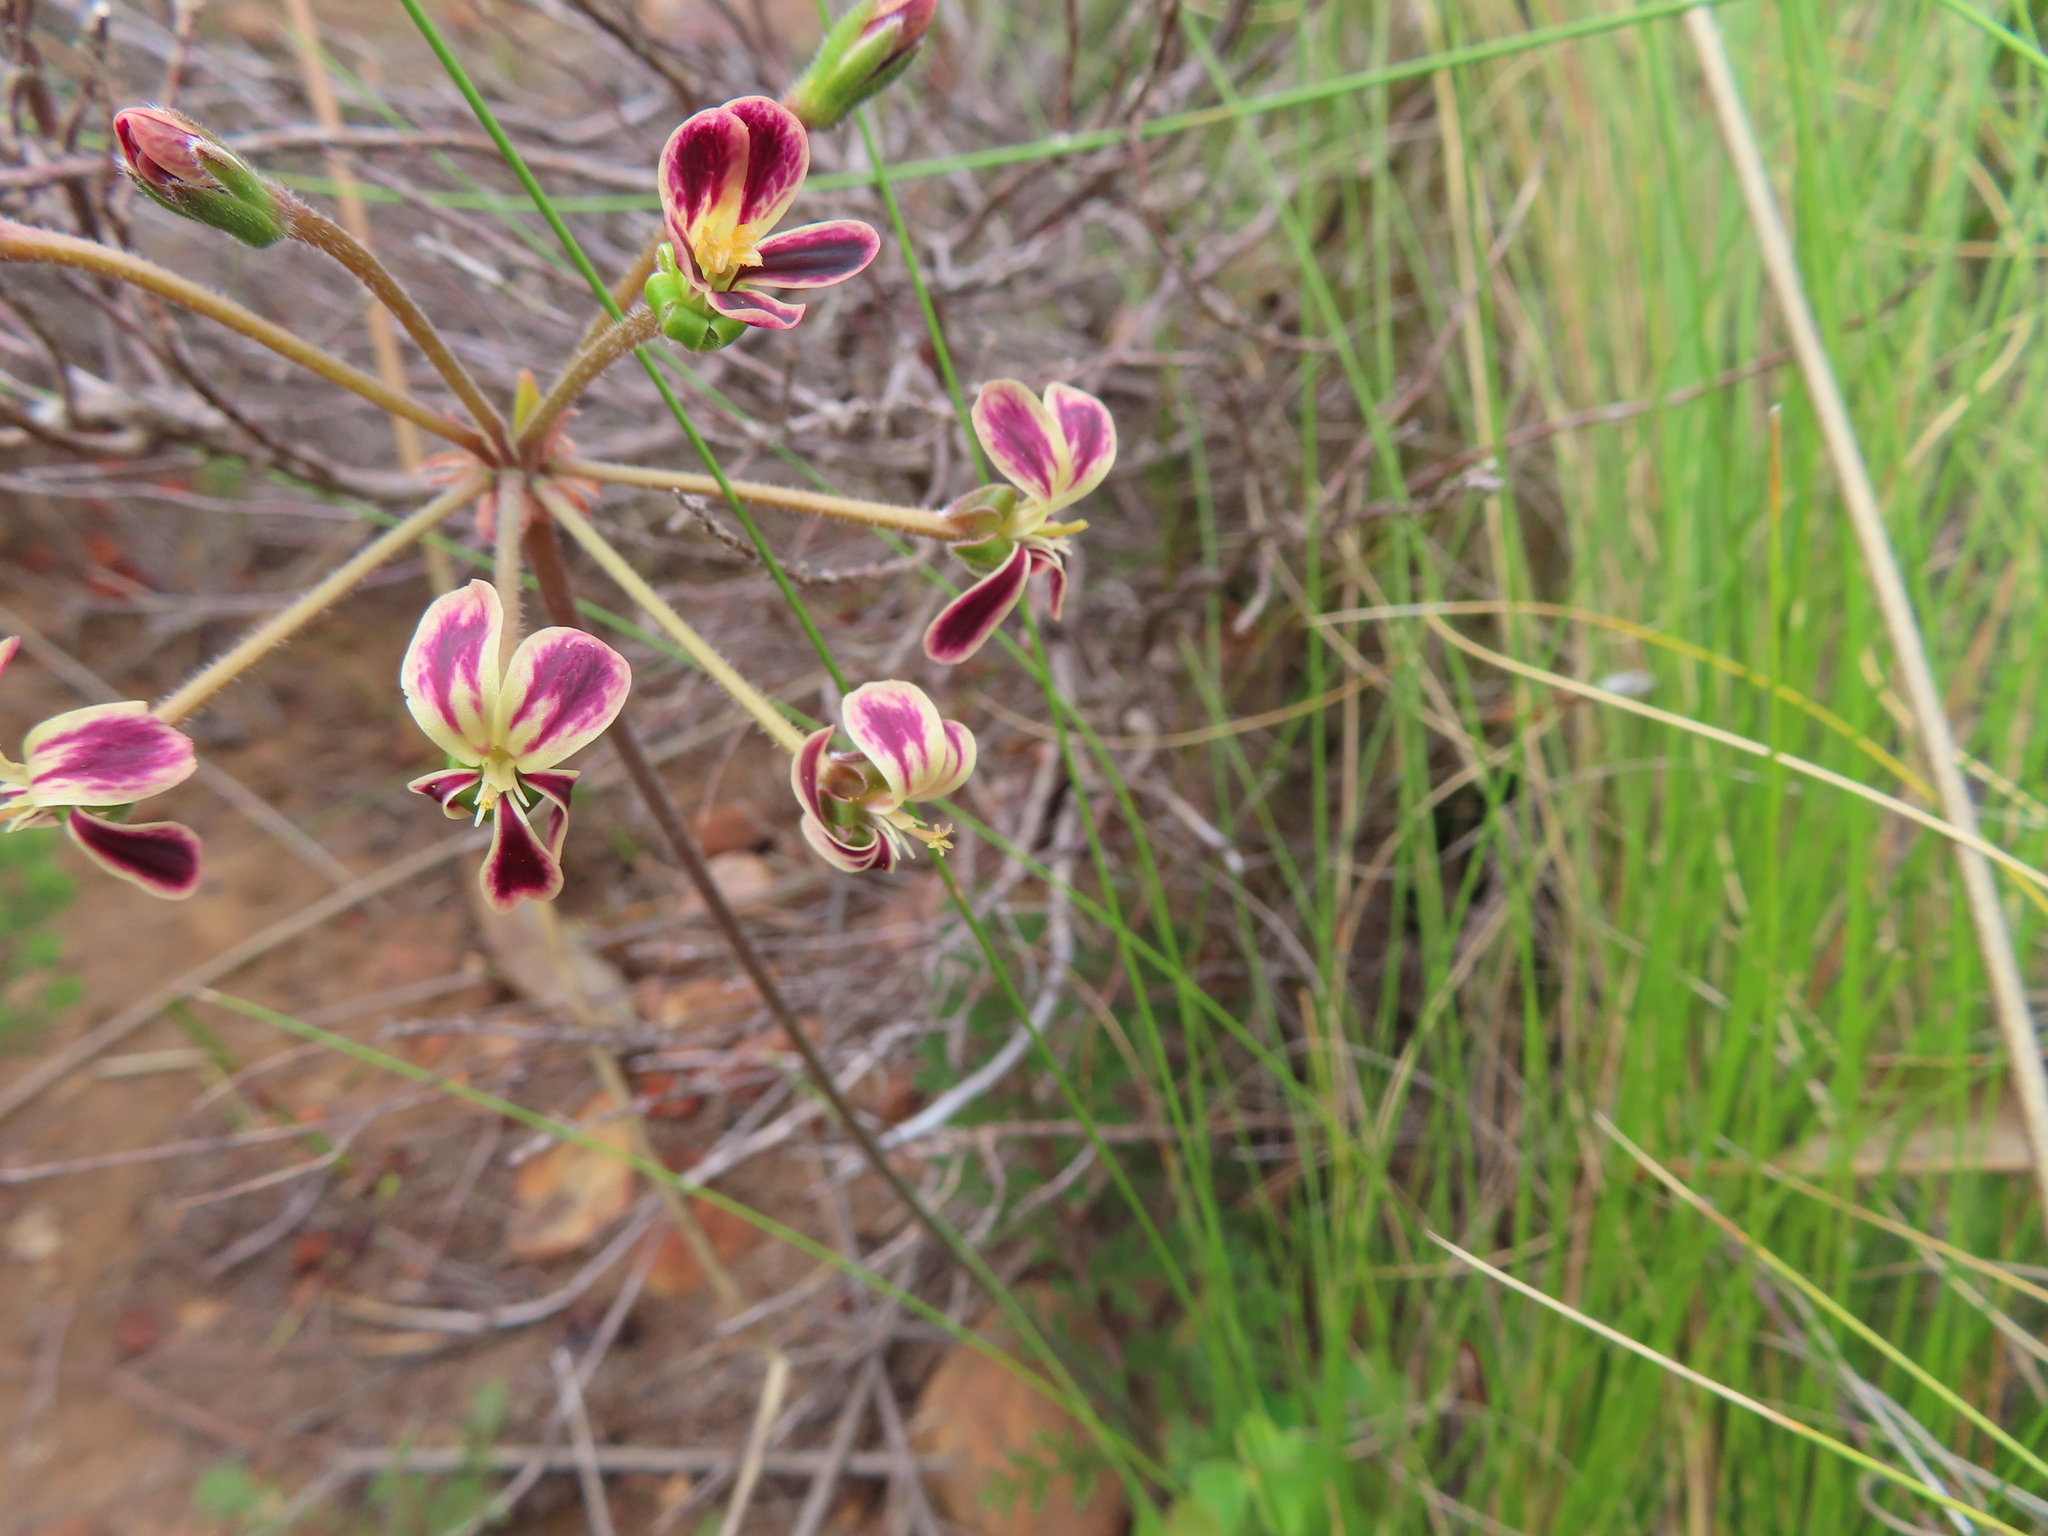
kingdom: Plantae
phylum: Tracheophyta
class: Magnoliopsida
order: Geraniales
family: Geraniaceae
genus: Pelargonium
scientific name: Pelargonium triste
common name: Night-scent pelargonium
